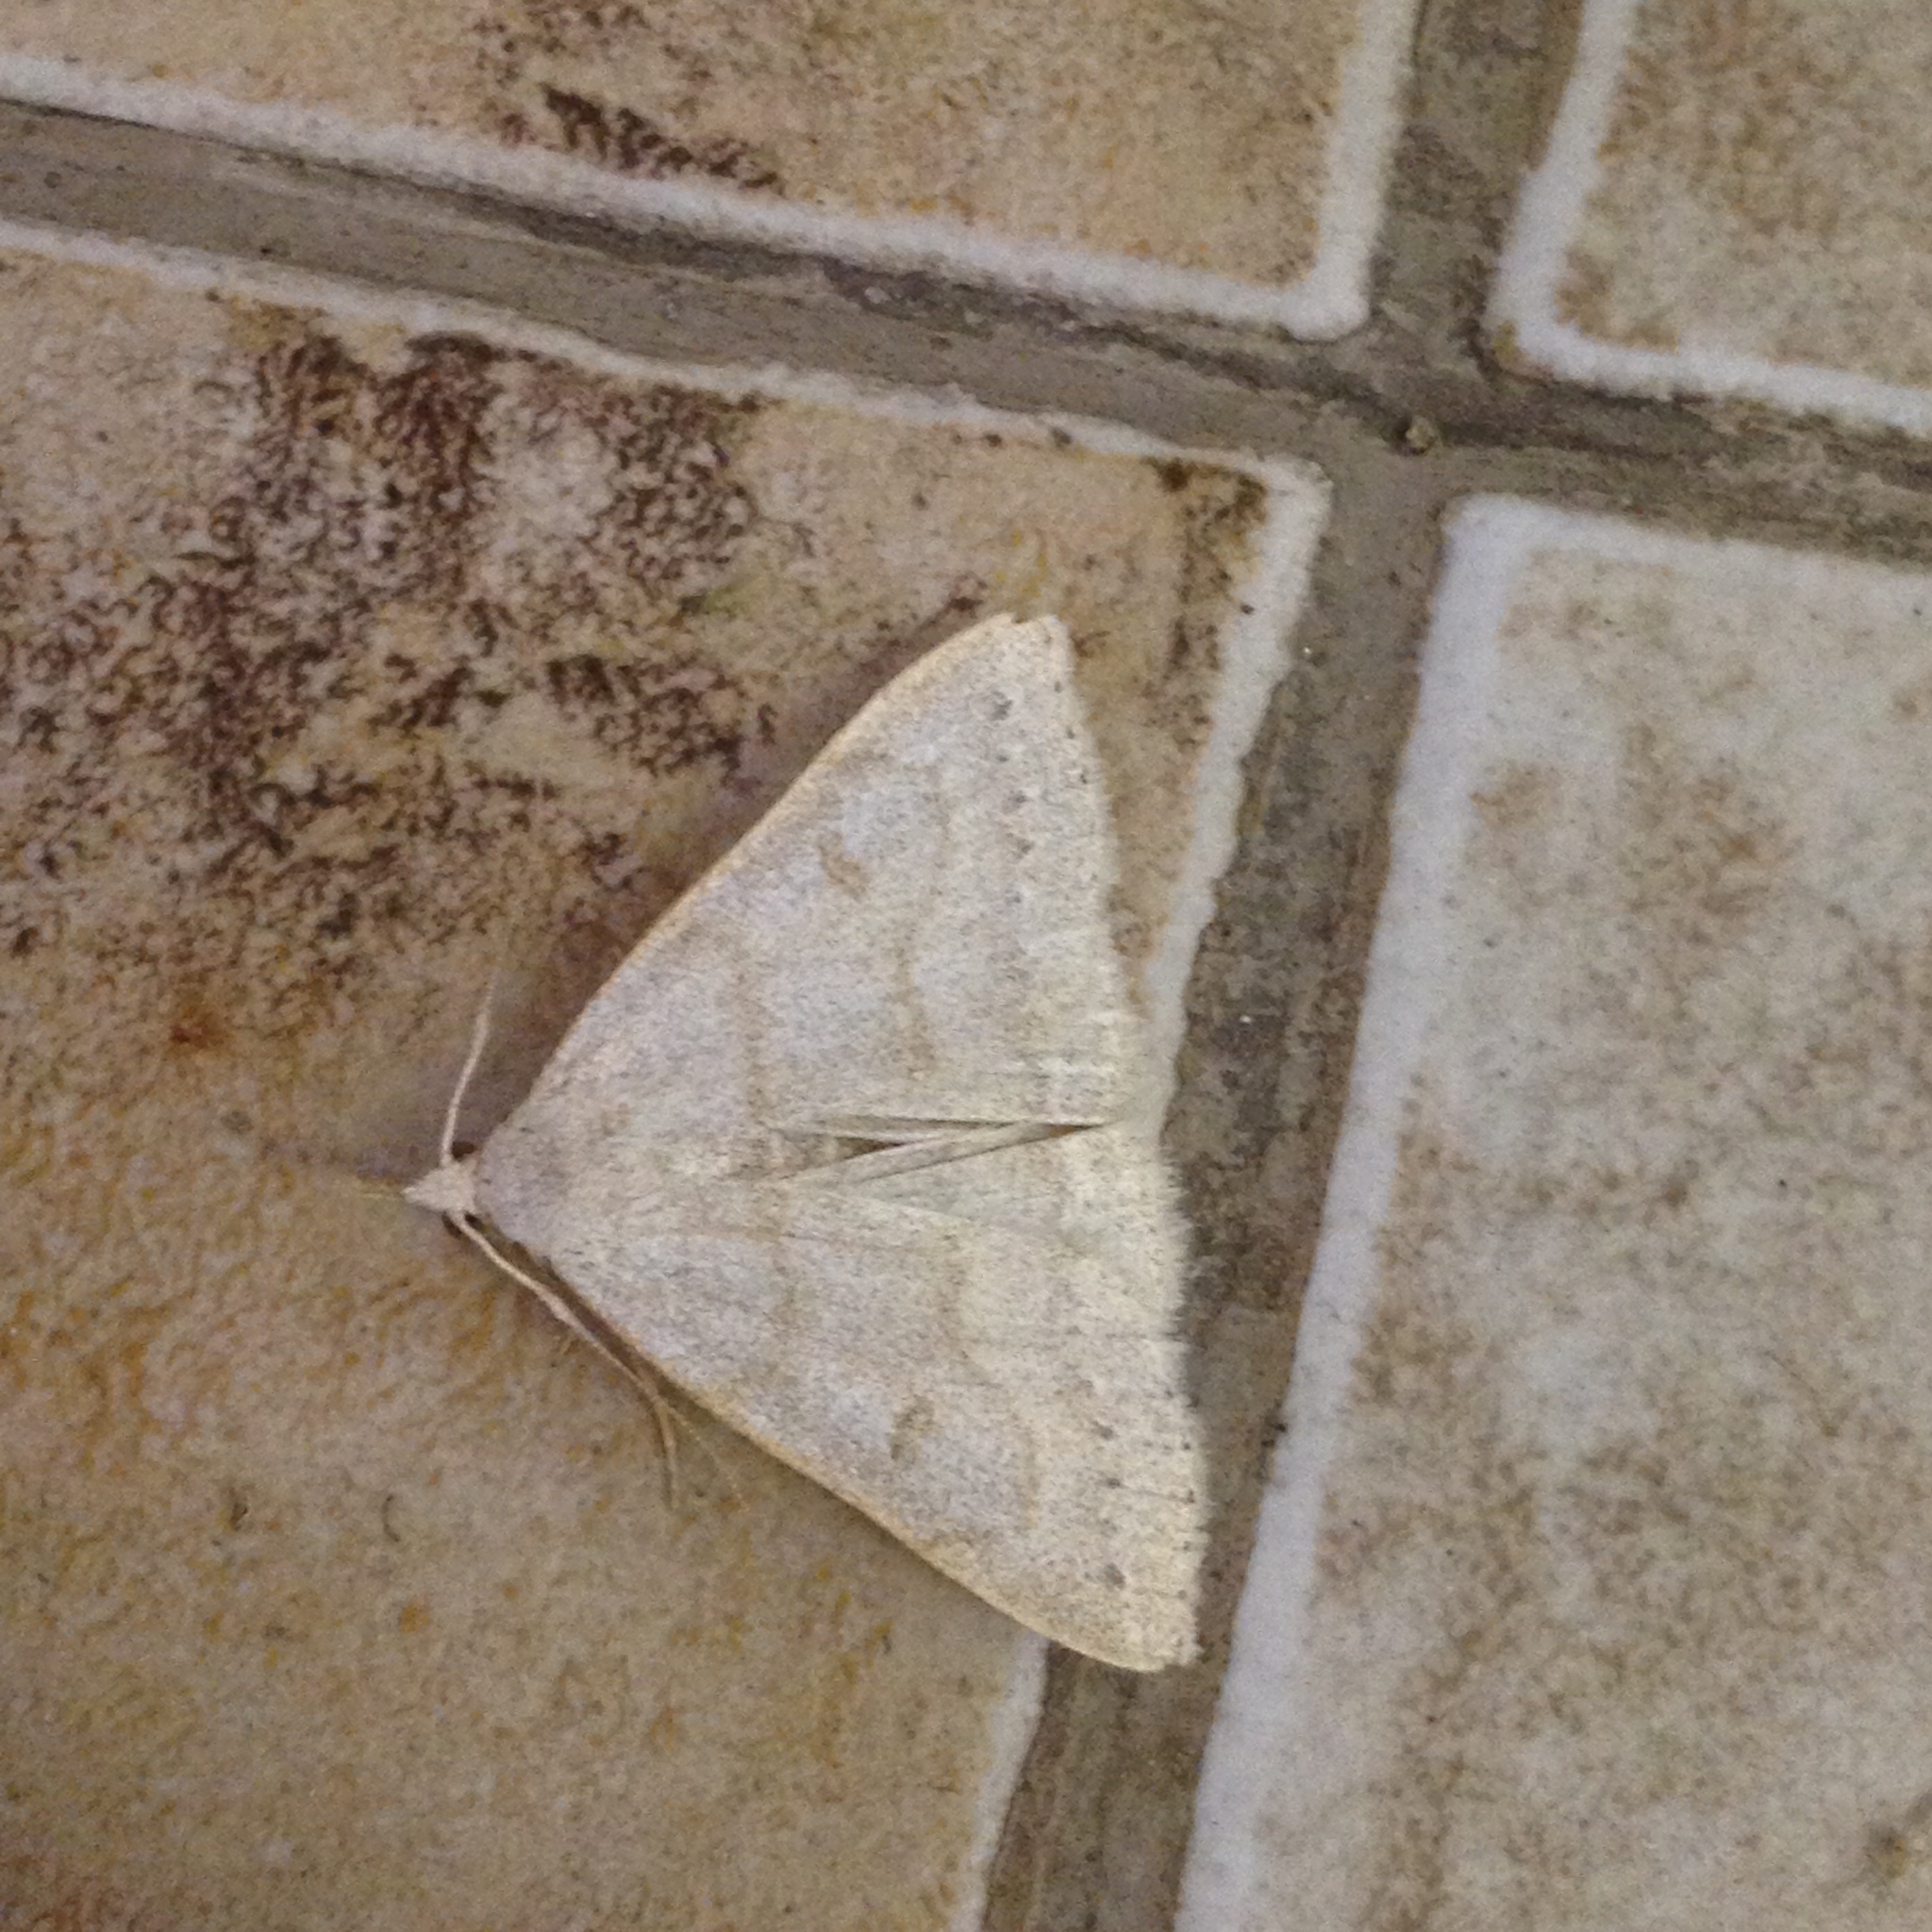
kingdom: Animalia
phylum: Arthropoda
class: Insecta
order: Lepidoptera
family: Erebidae
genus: Macrochilo
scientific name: Macrochilo morbidalis
